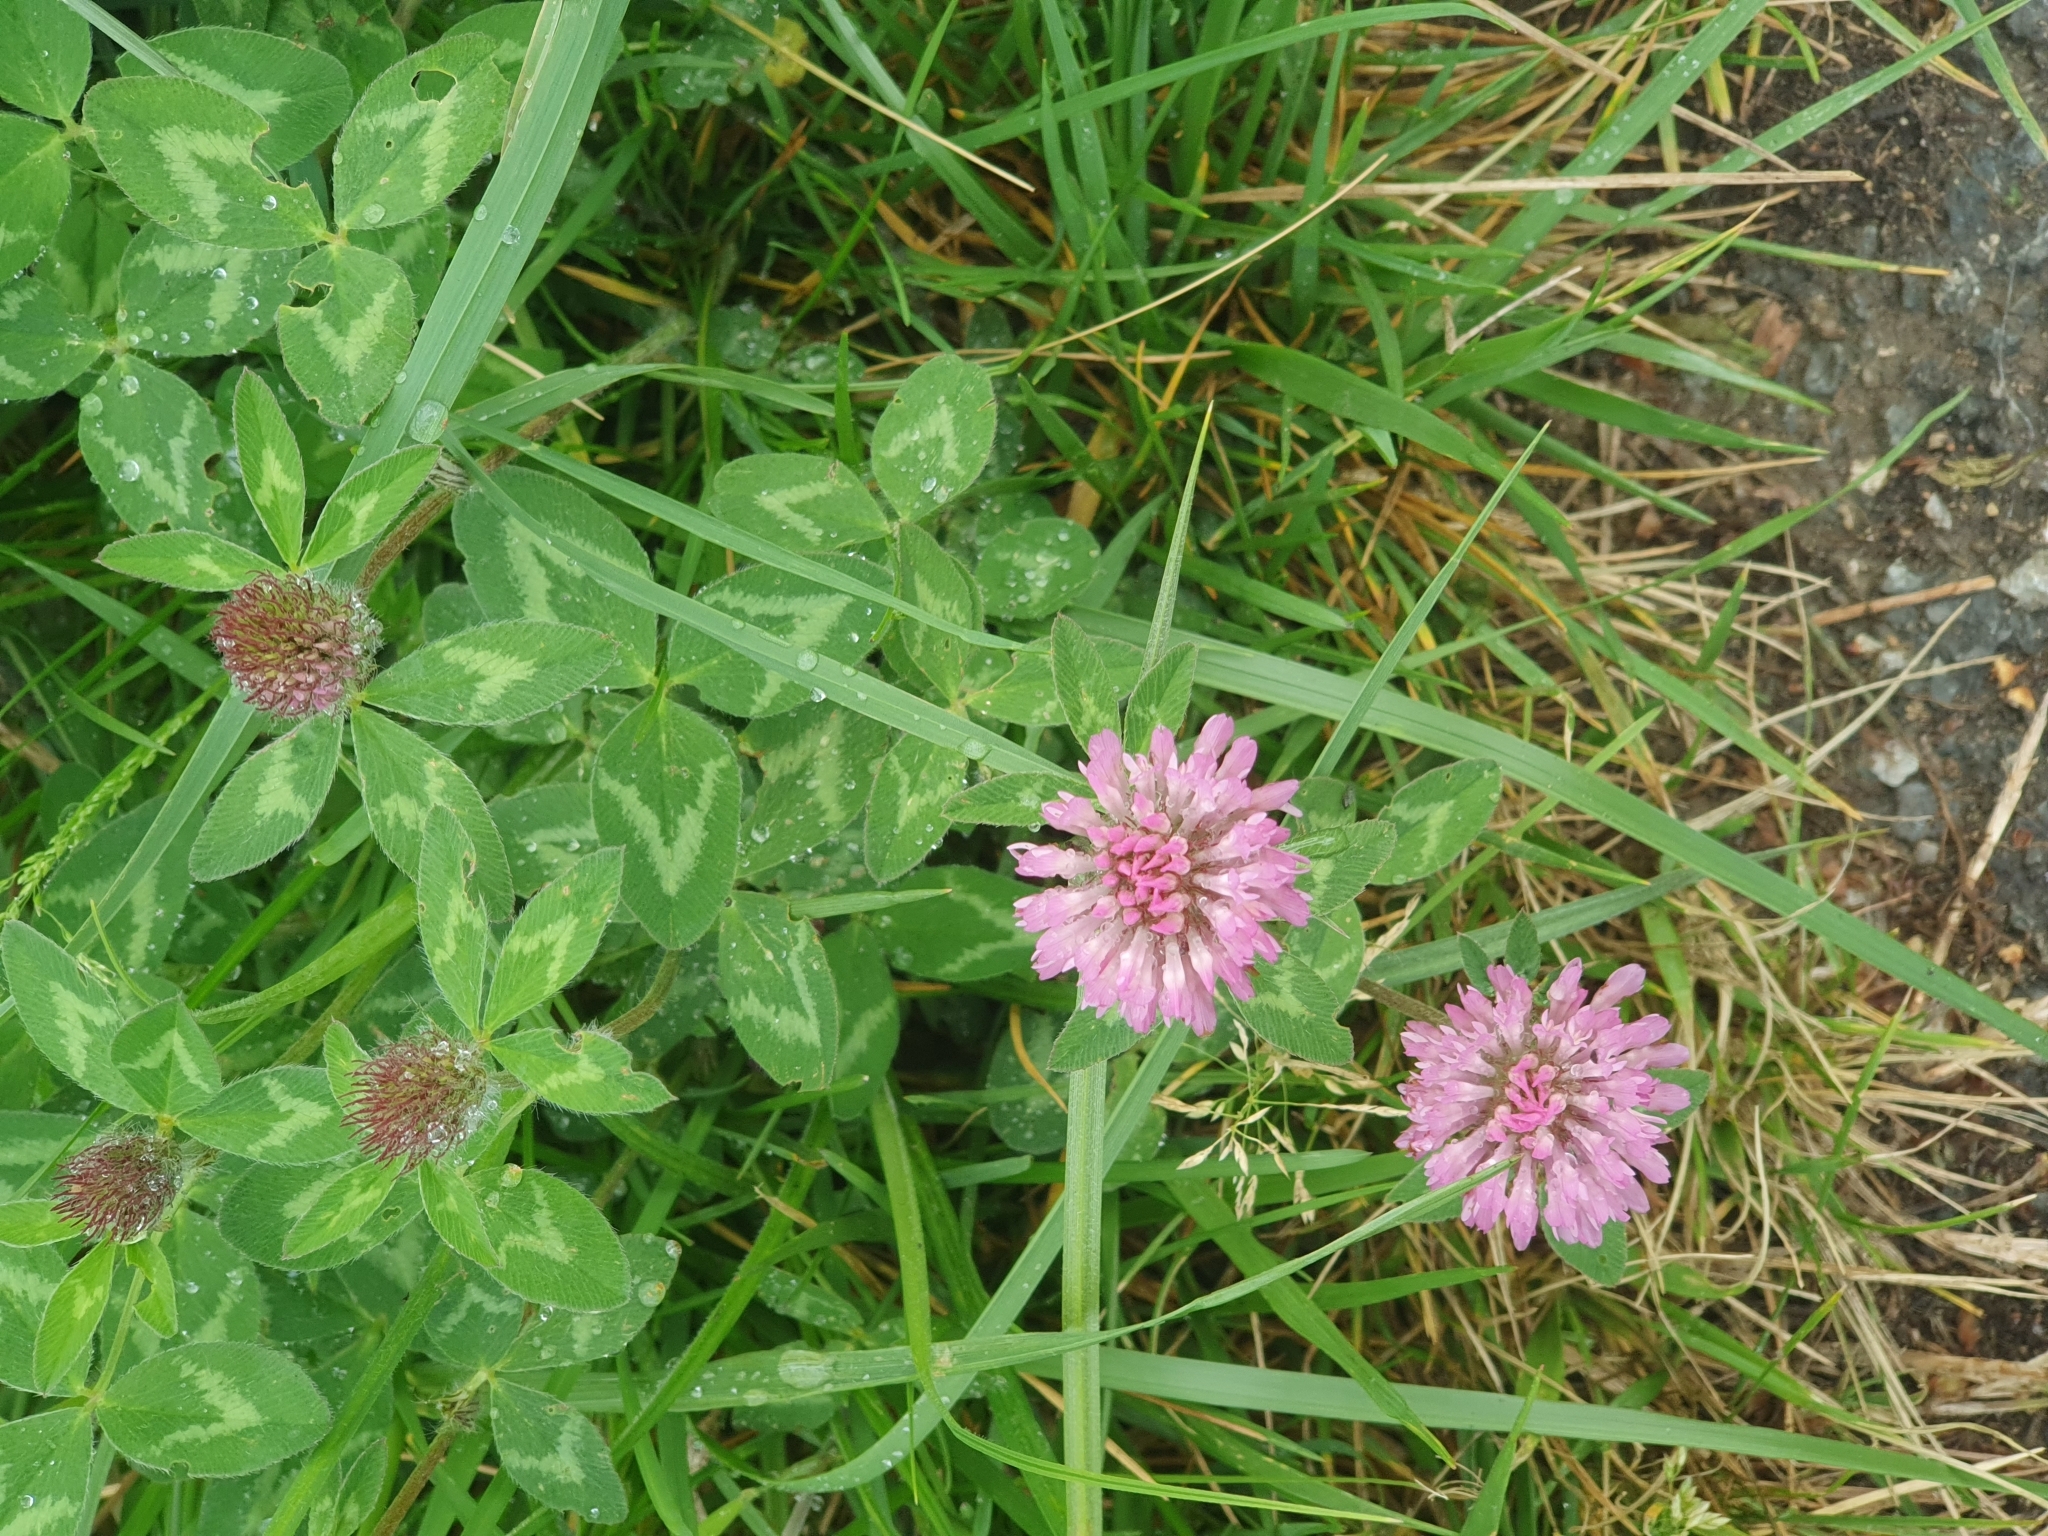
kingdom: Plantae
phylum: Tracheophyta
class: Magnoliopsida
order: Fabales
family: Fabaceae
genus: Trifolium
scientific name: Trifolium pratense
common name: Red clover
